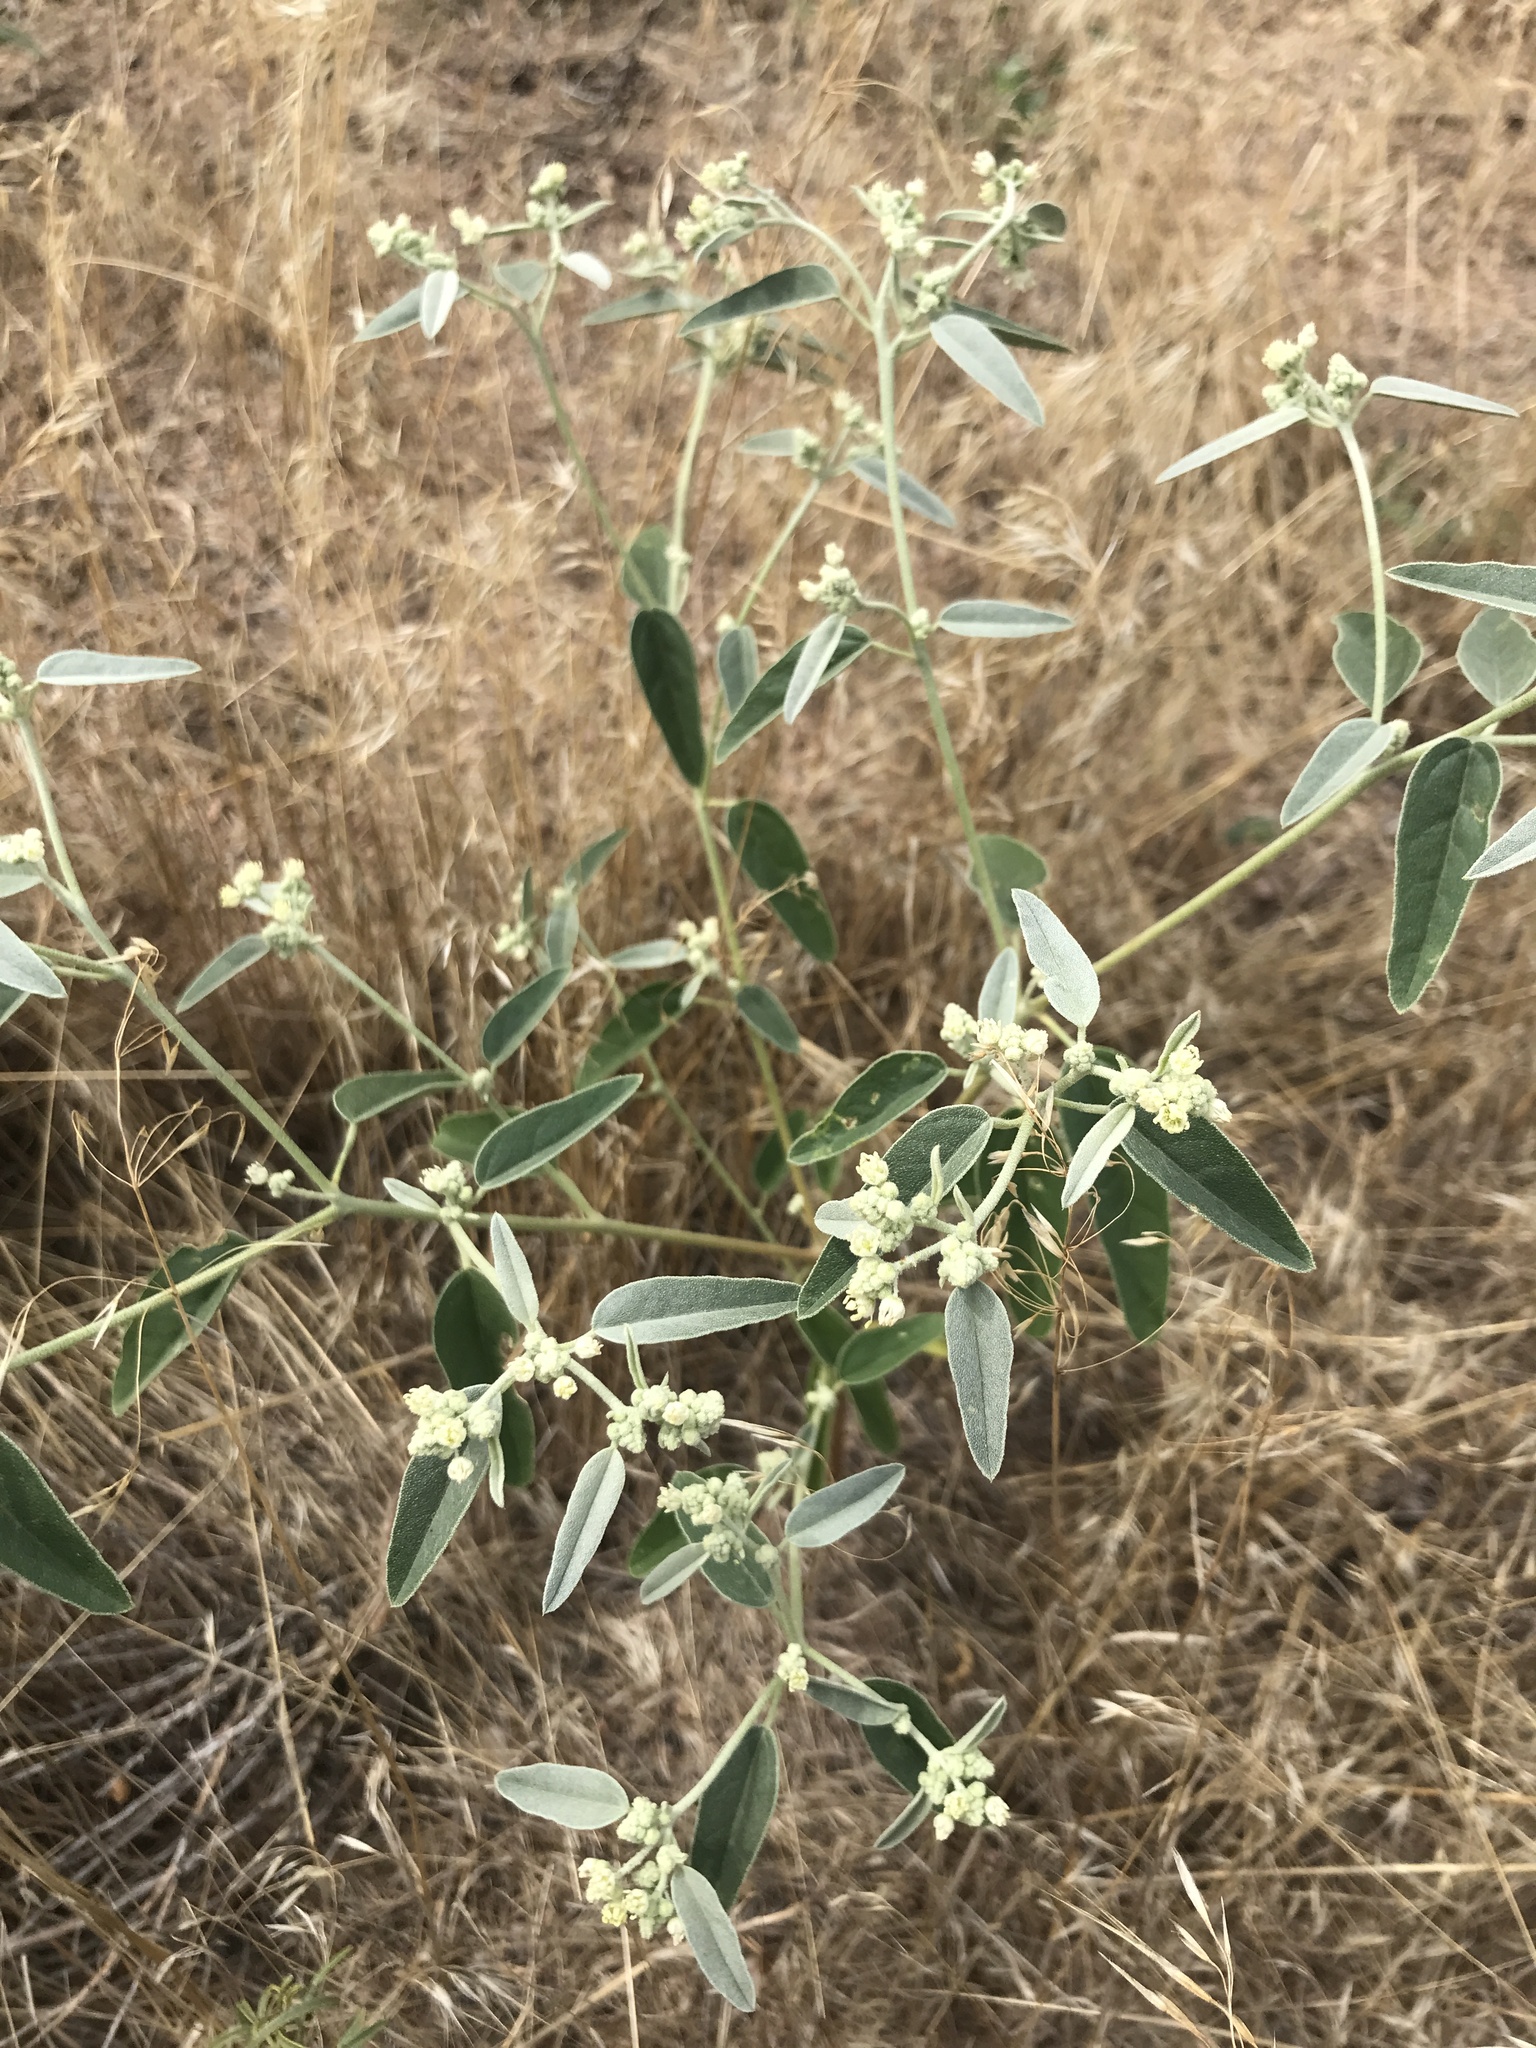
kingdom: Plantae
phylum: Tracheophyta
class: Magnoliopsida
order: Malpighiales
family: Euphorbiaceae
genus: Croton
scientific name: Croton texensis
